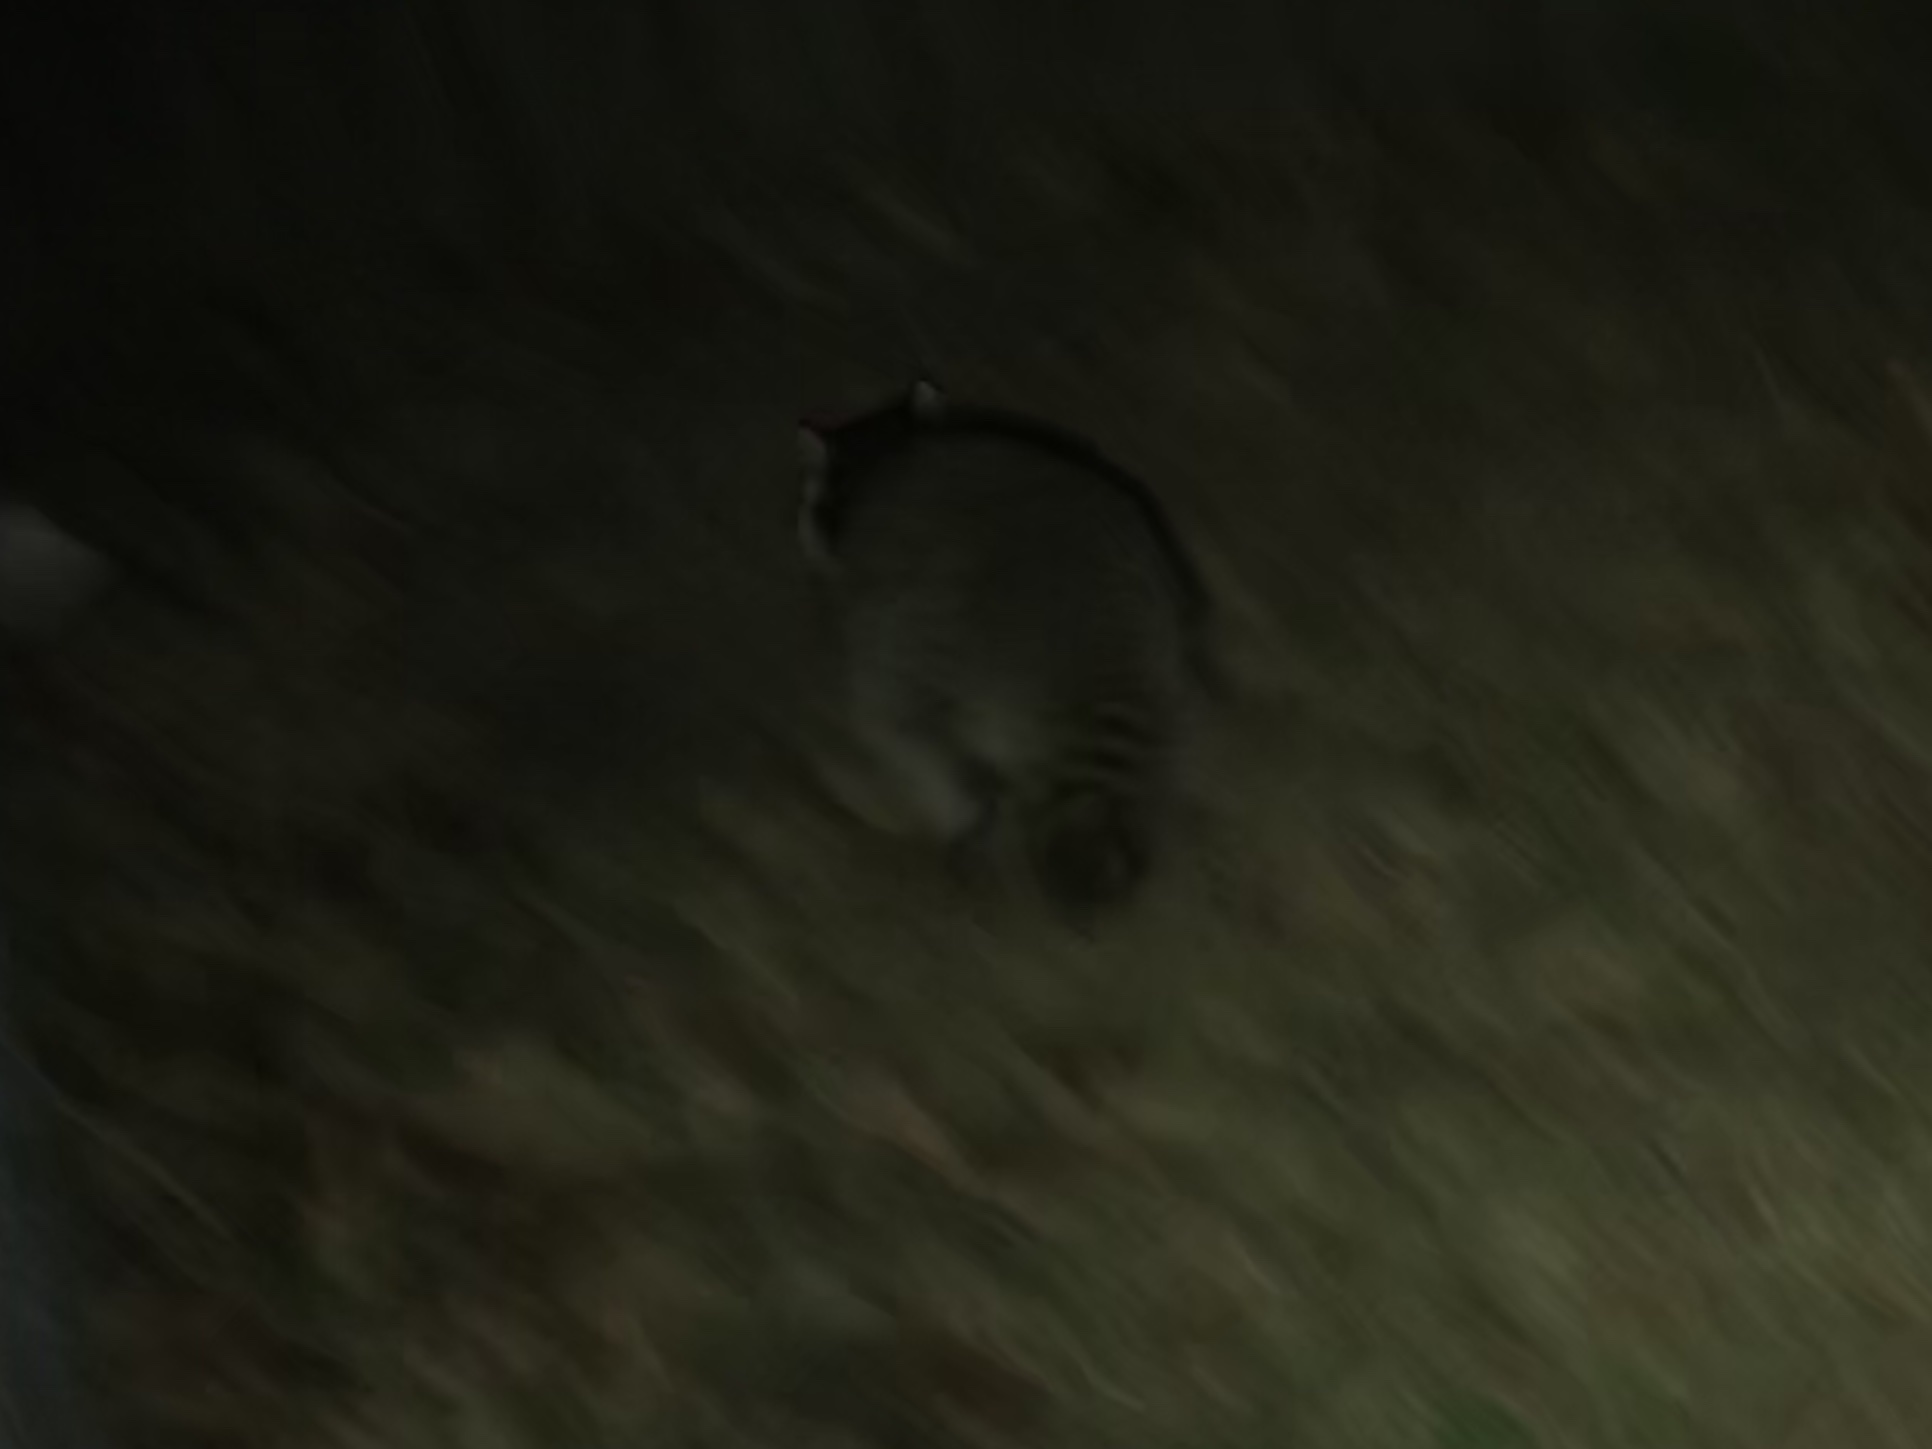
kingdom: Animalia
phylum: Chordata
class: Mammalia
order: Carnivora
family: Procyonidae
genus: Procyon
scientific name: Procyon lotor
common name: Raccoon
